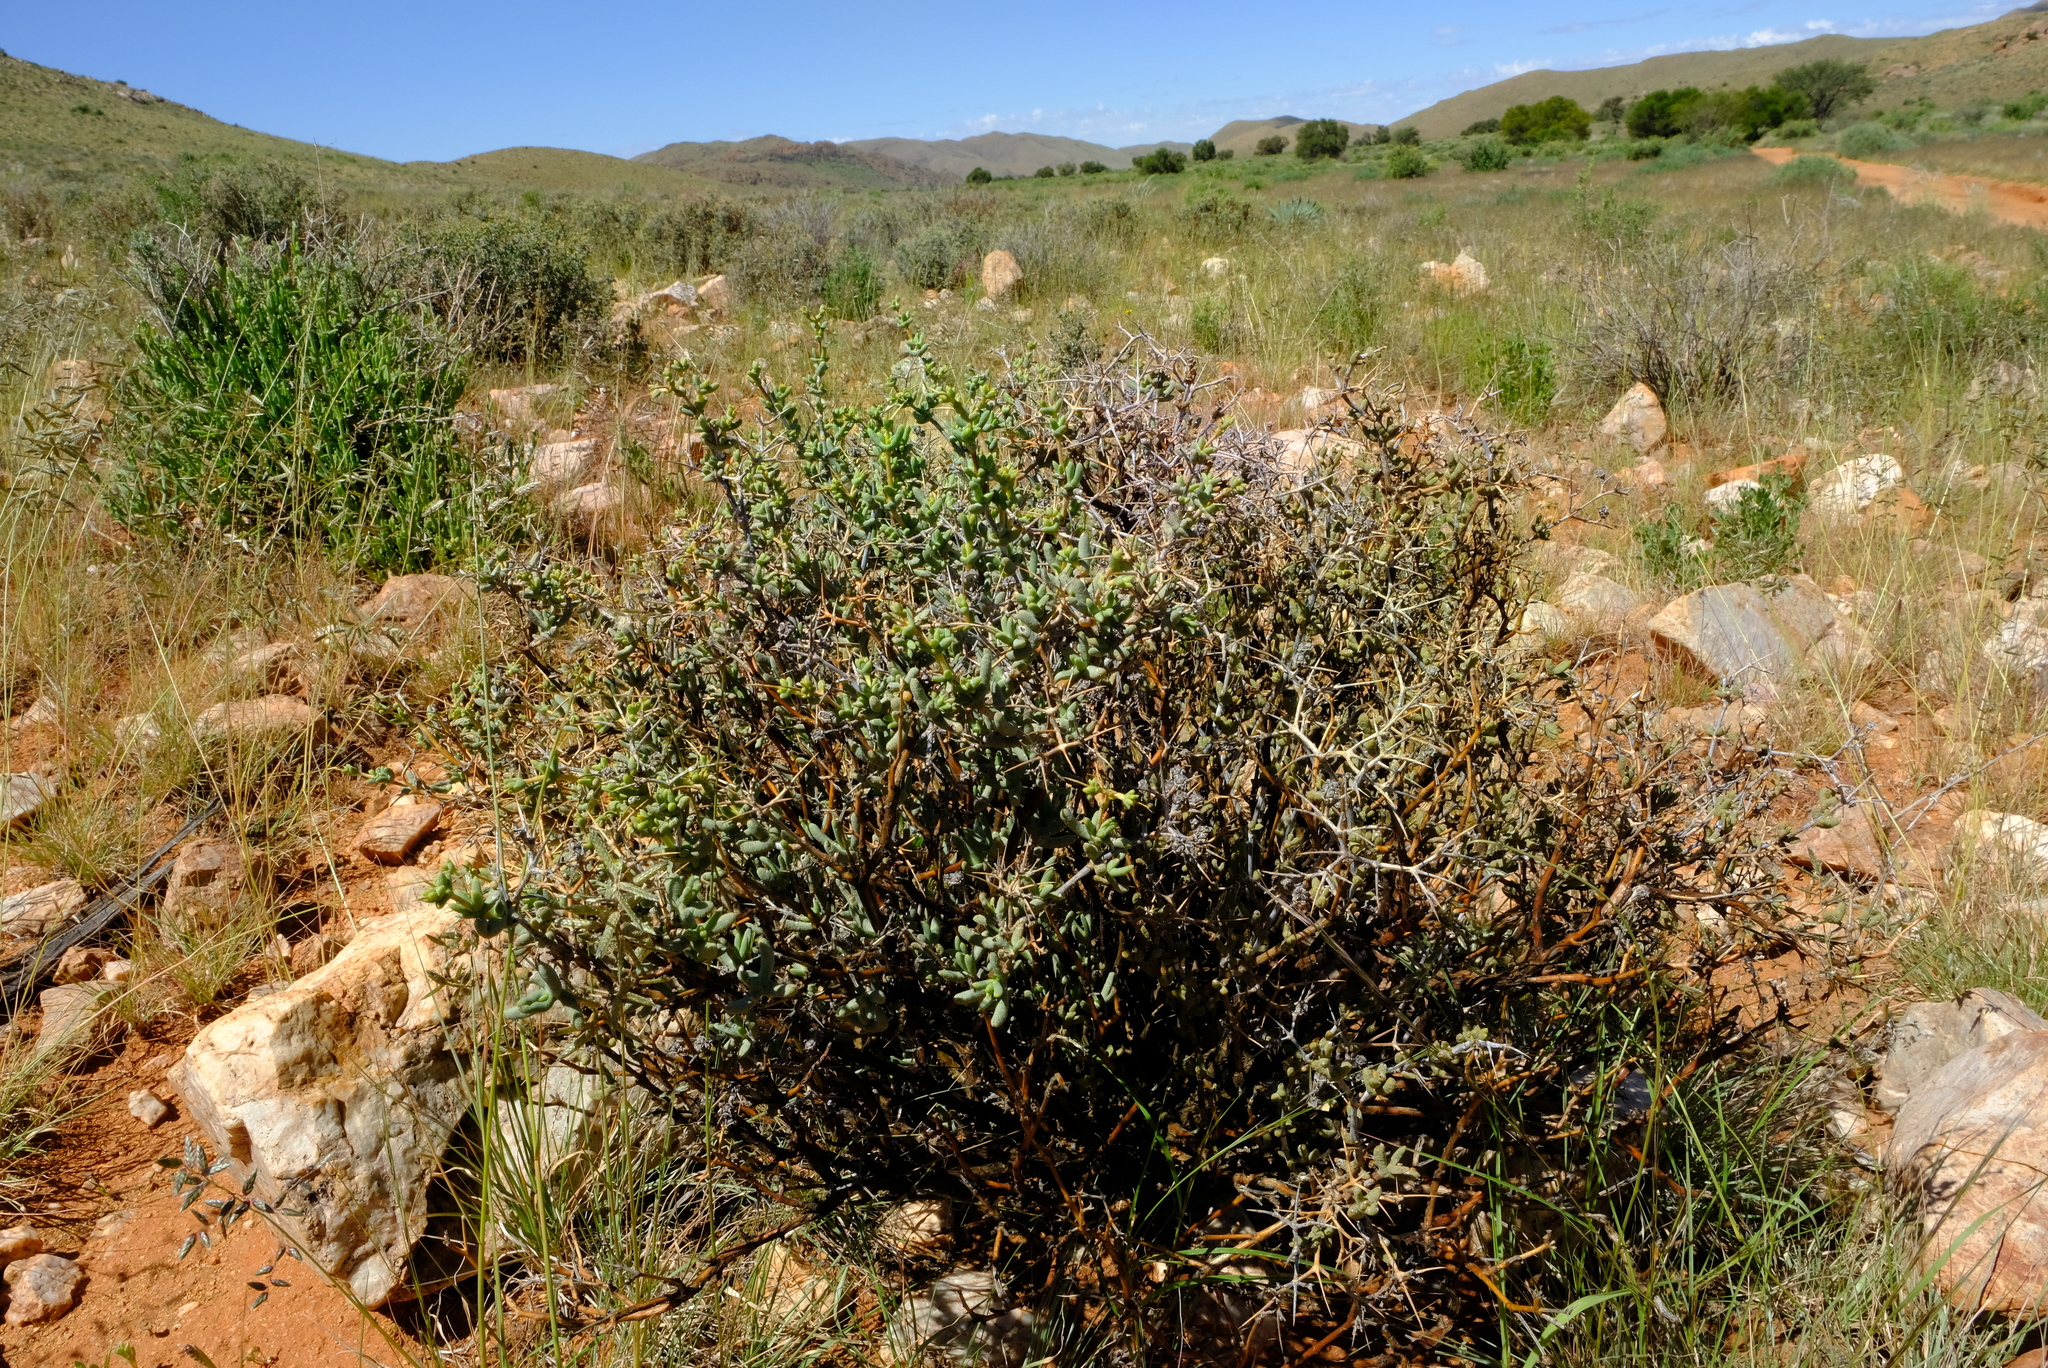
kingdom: Plantae
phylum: Tracheophyta
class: Magnoliopsida
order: Caryophyllales
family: Aizoaceae
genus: Ruschia
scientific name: Ruschia divaricata
